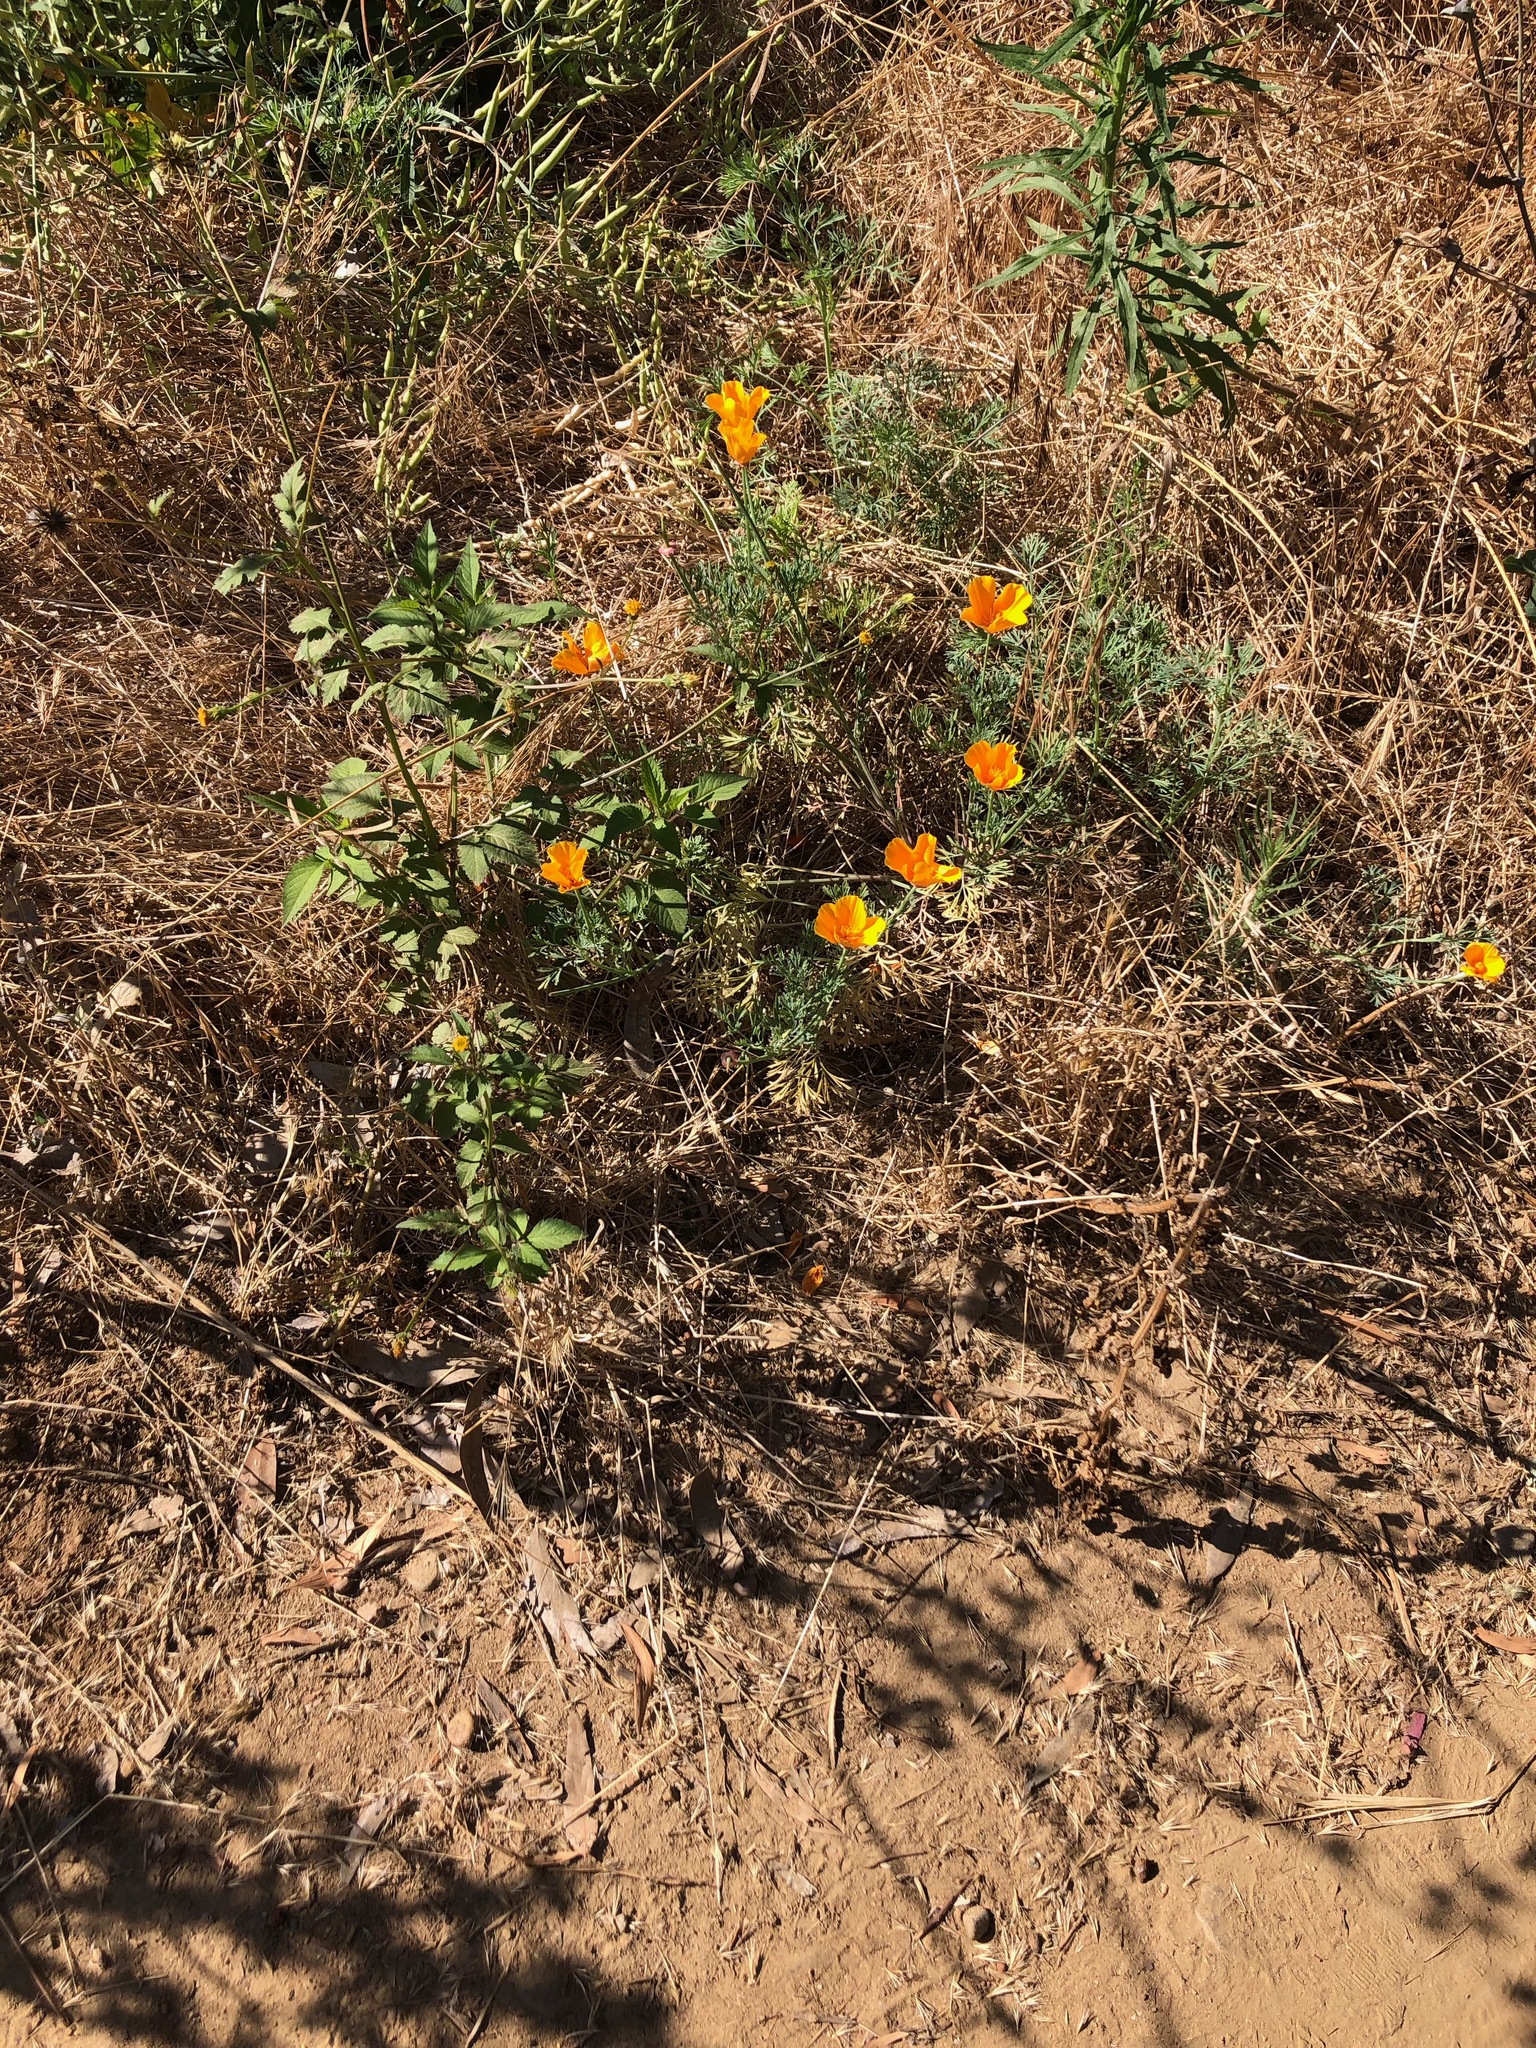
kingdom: Plantae
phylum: Tracheophyta
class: Magnoliopsida
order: Ranunculales
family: Papaveraceae
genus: Eschscholzia
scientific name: Eschscholzia californica
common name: California poppy
